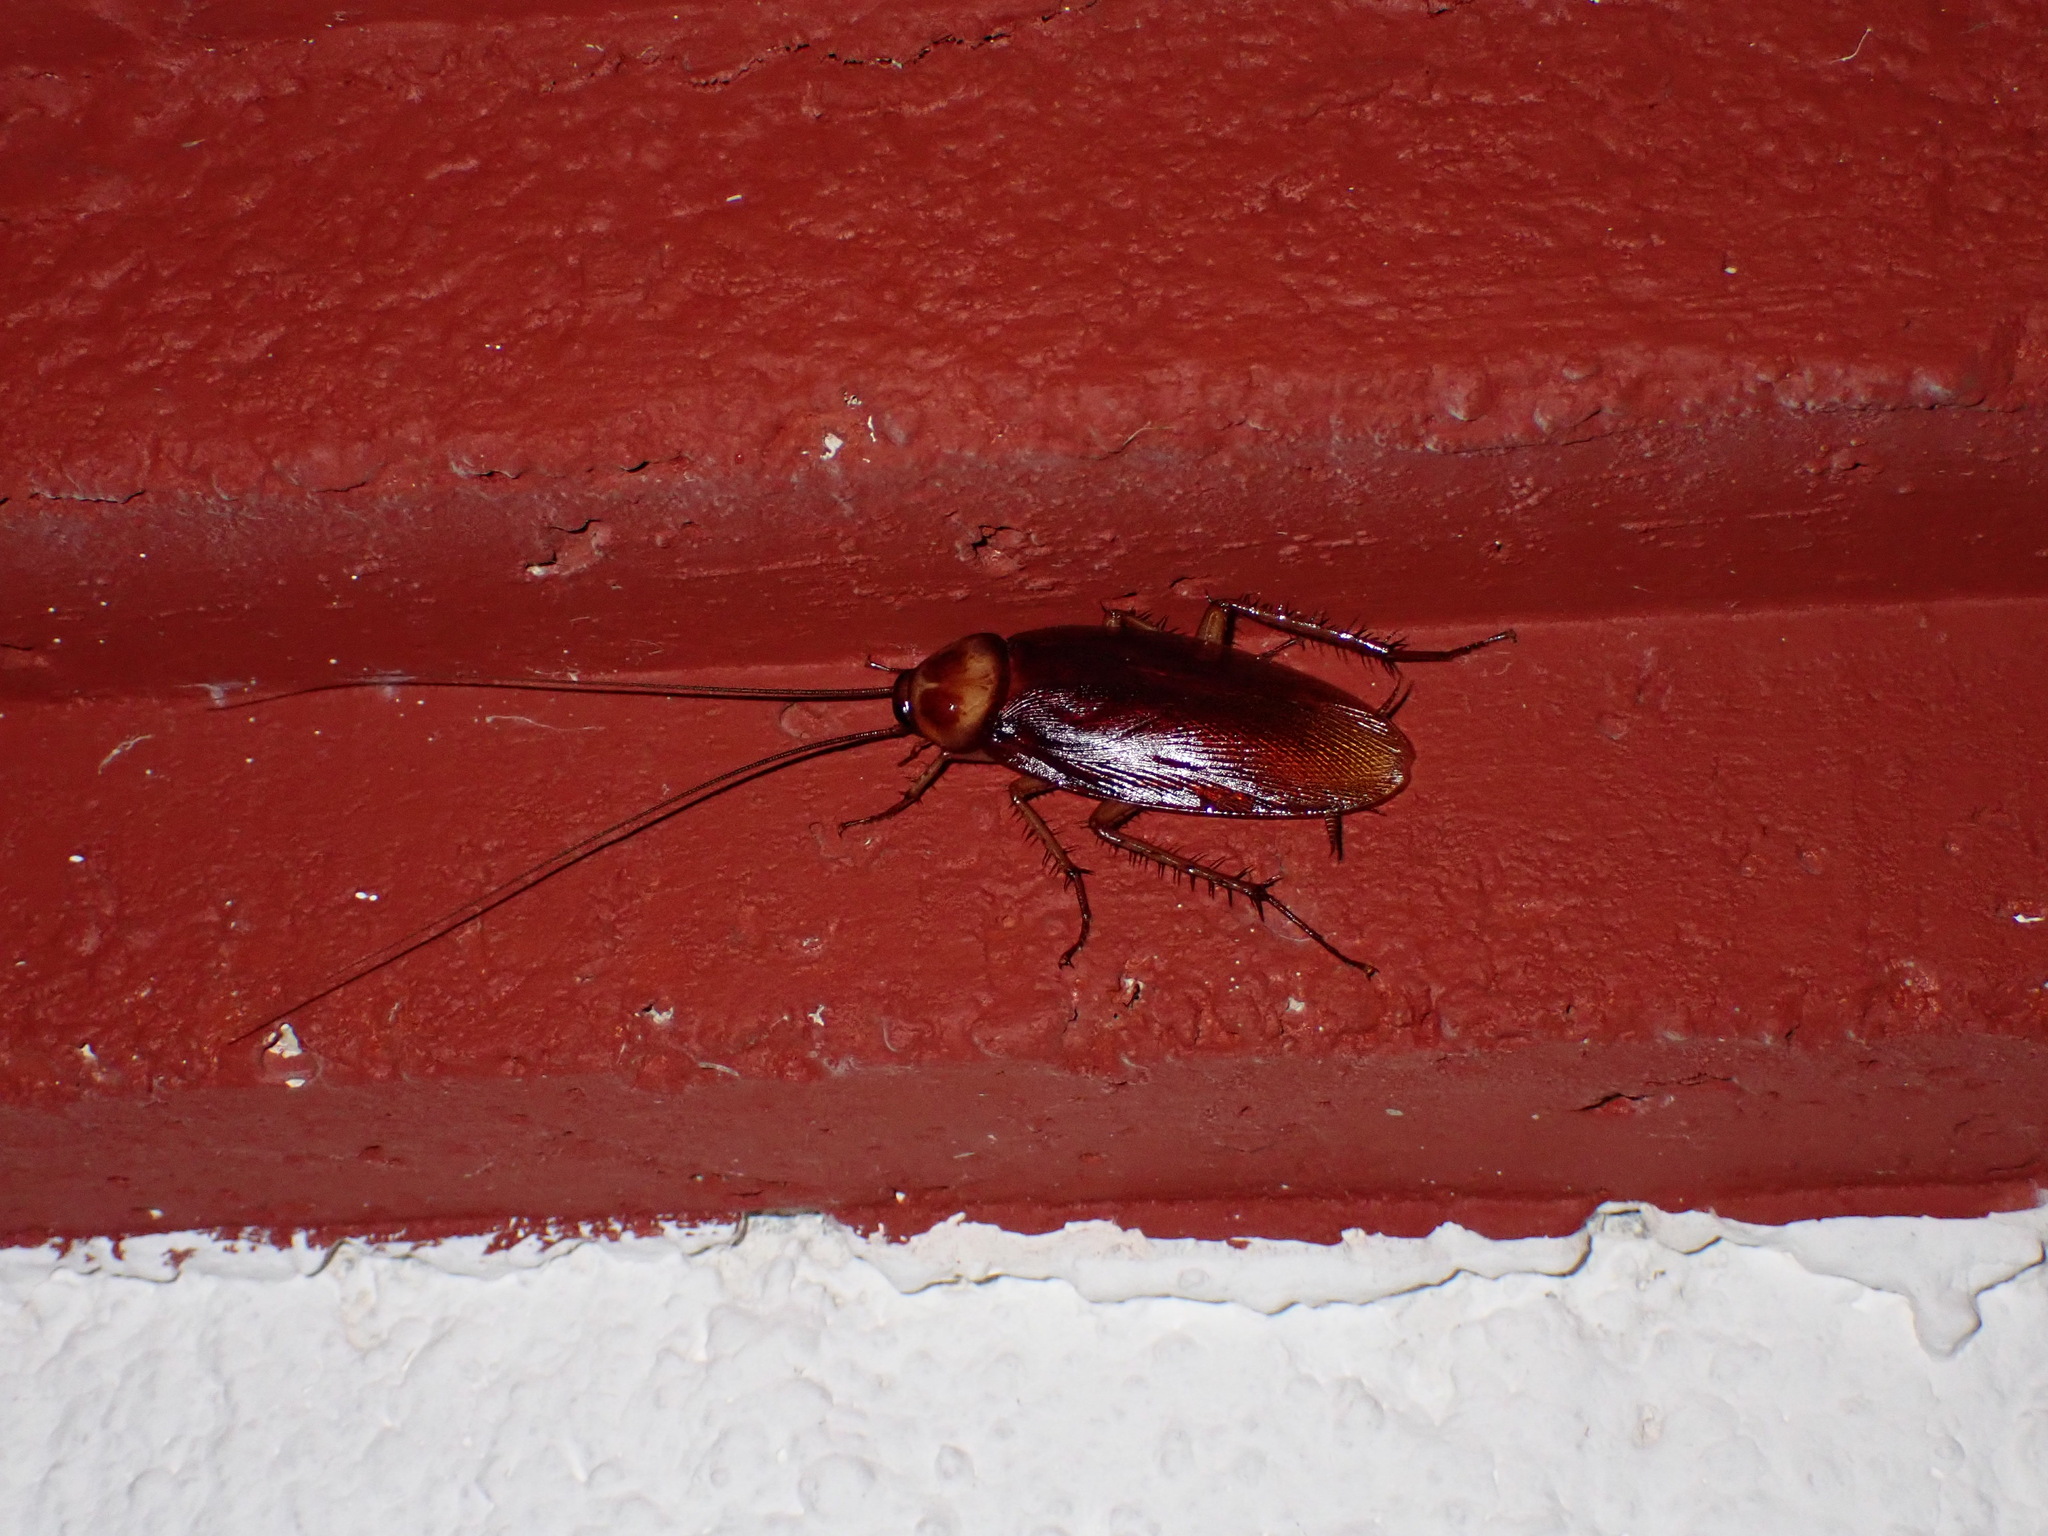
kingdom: Animalia
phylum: Arthropoda
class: Insecta
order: Blattodea
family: Blattidae
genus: Periplaneta
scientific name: Periplaneta americana
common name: American cockroach
